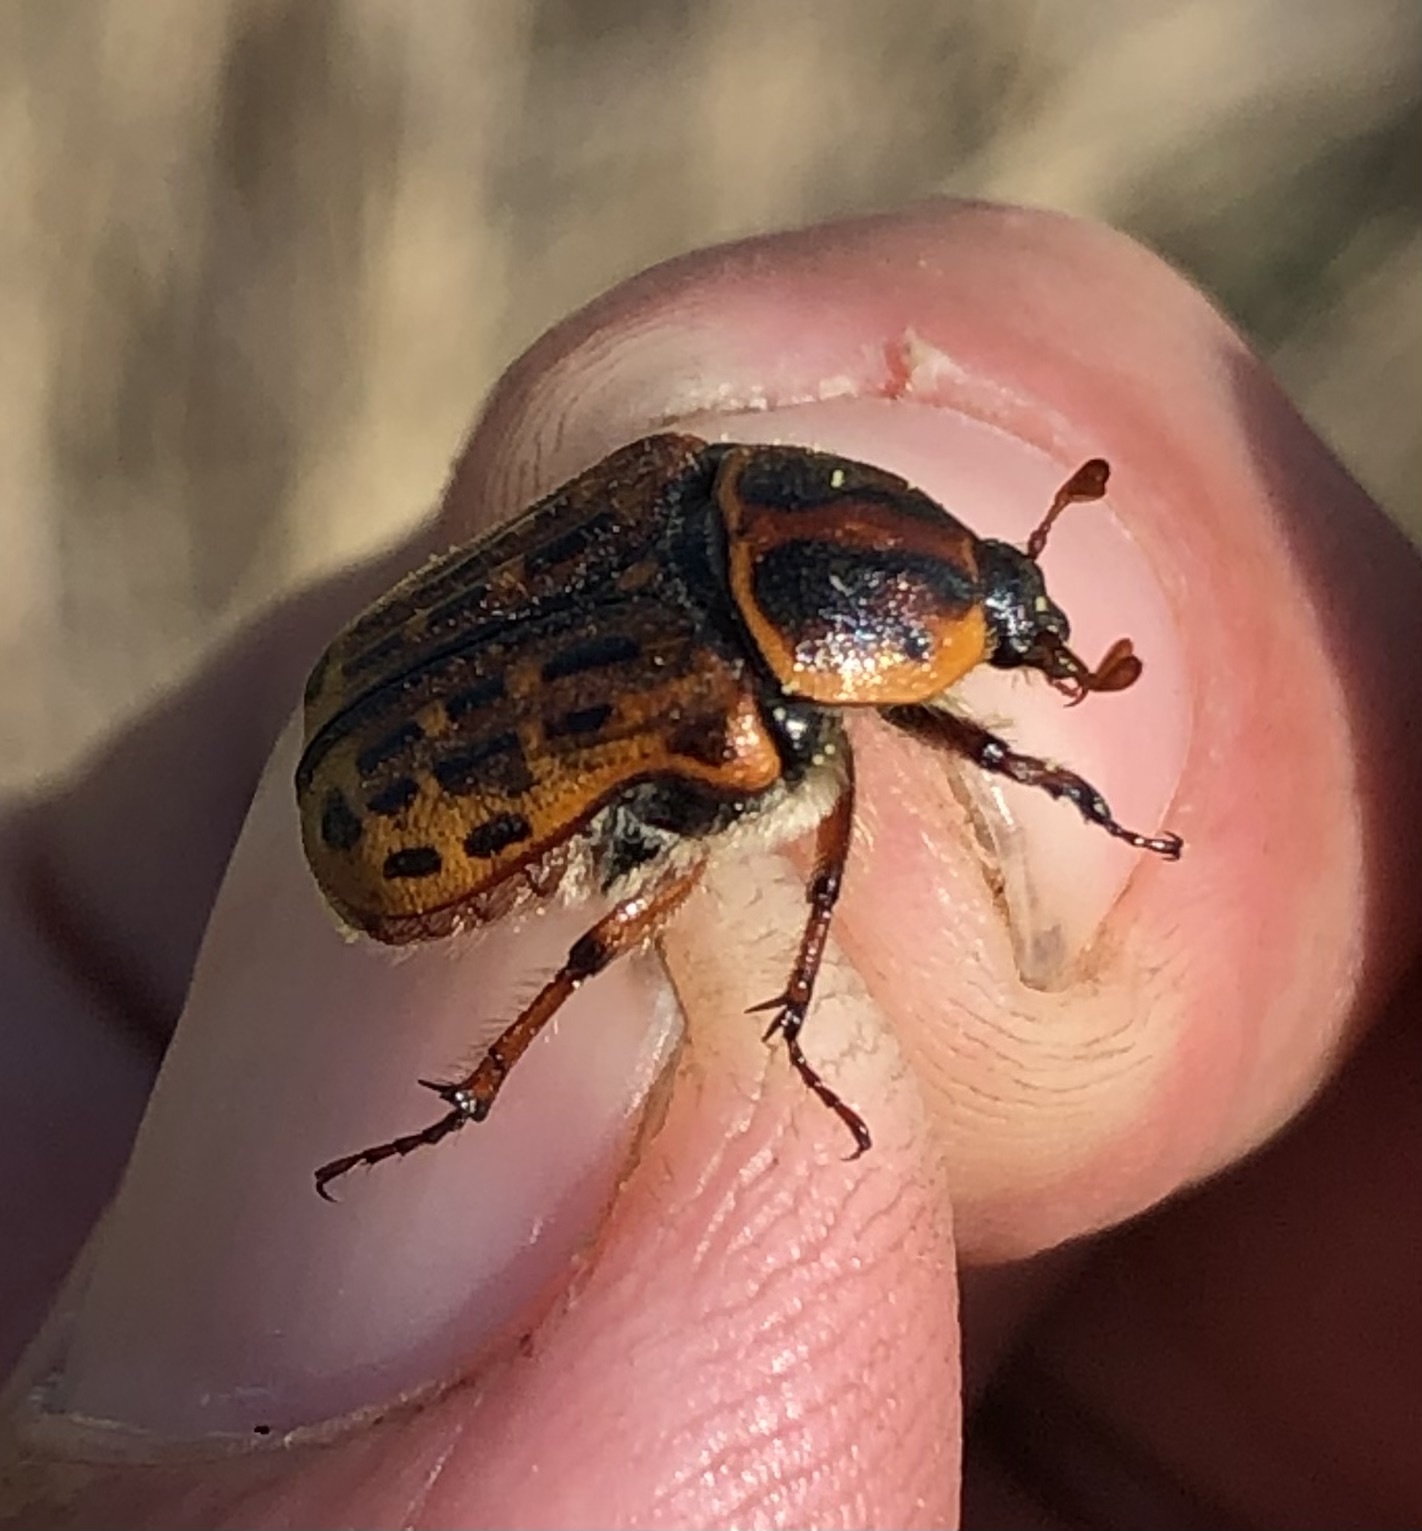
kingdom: Animalia
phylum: Arthropoda
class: Insecta
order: Coleoptera
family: Scarabaeidae
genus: Euphoria
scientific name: Euphoria kernii
